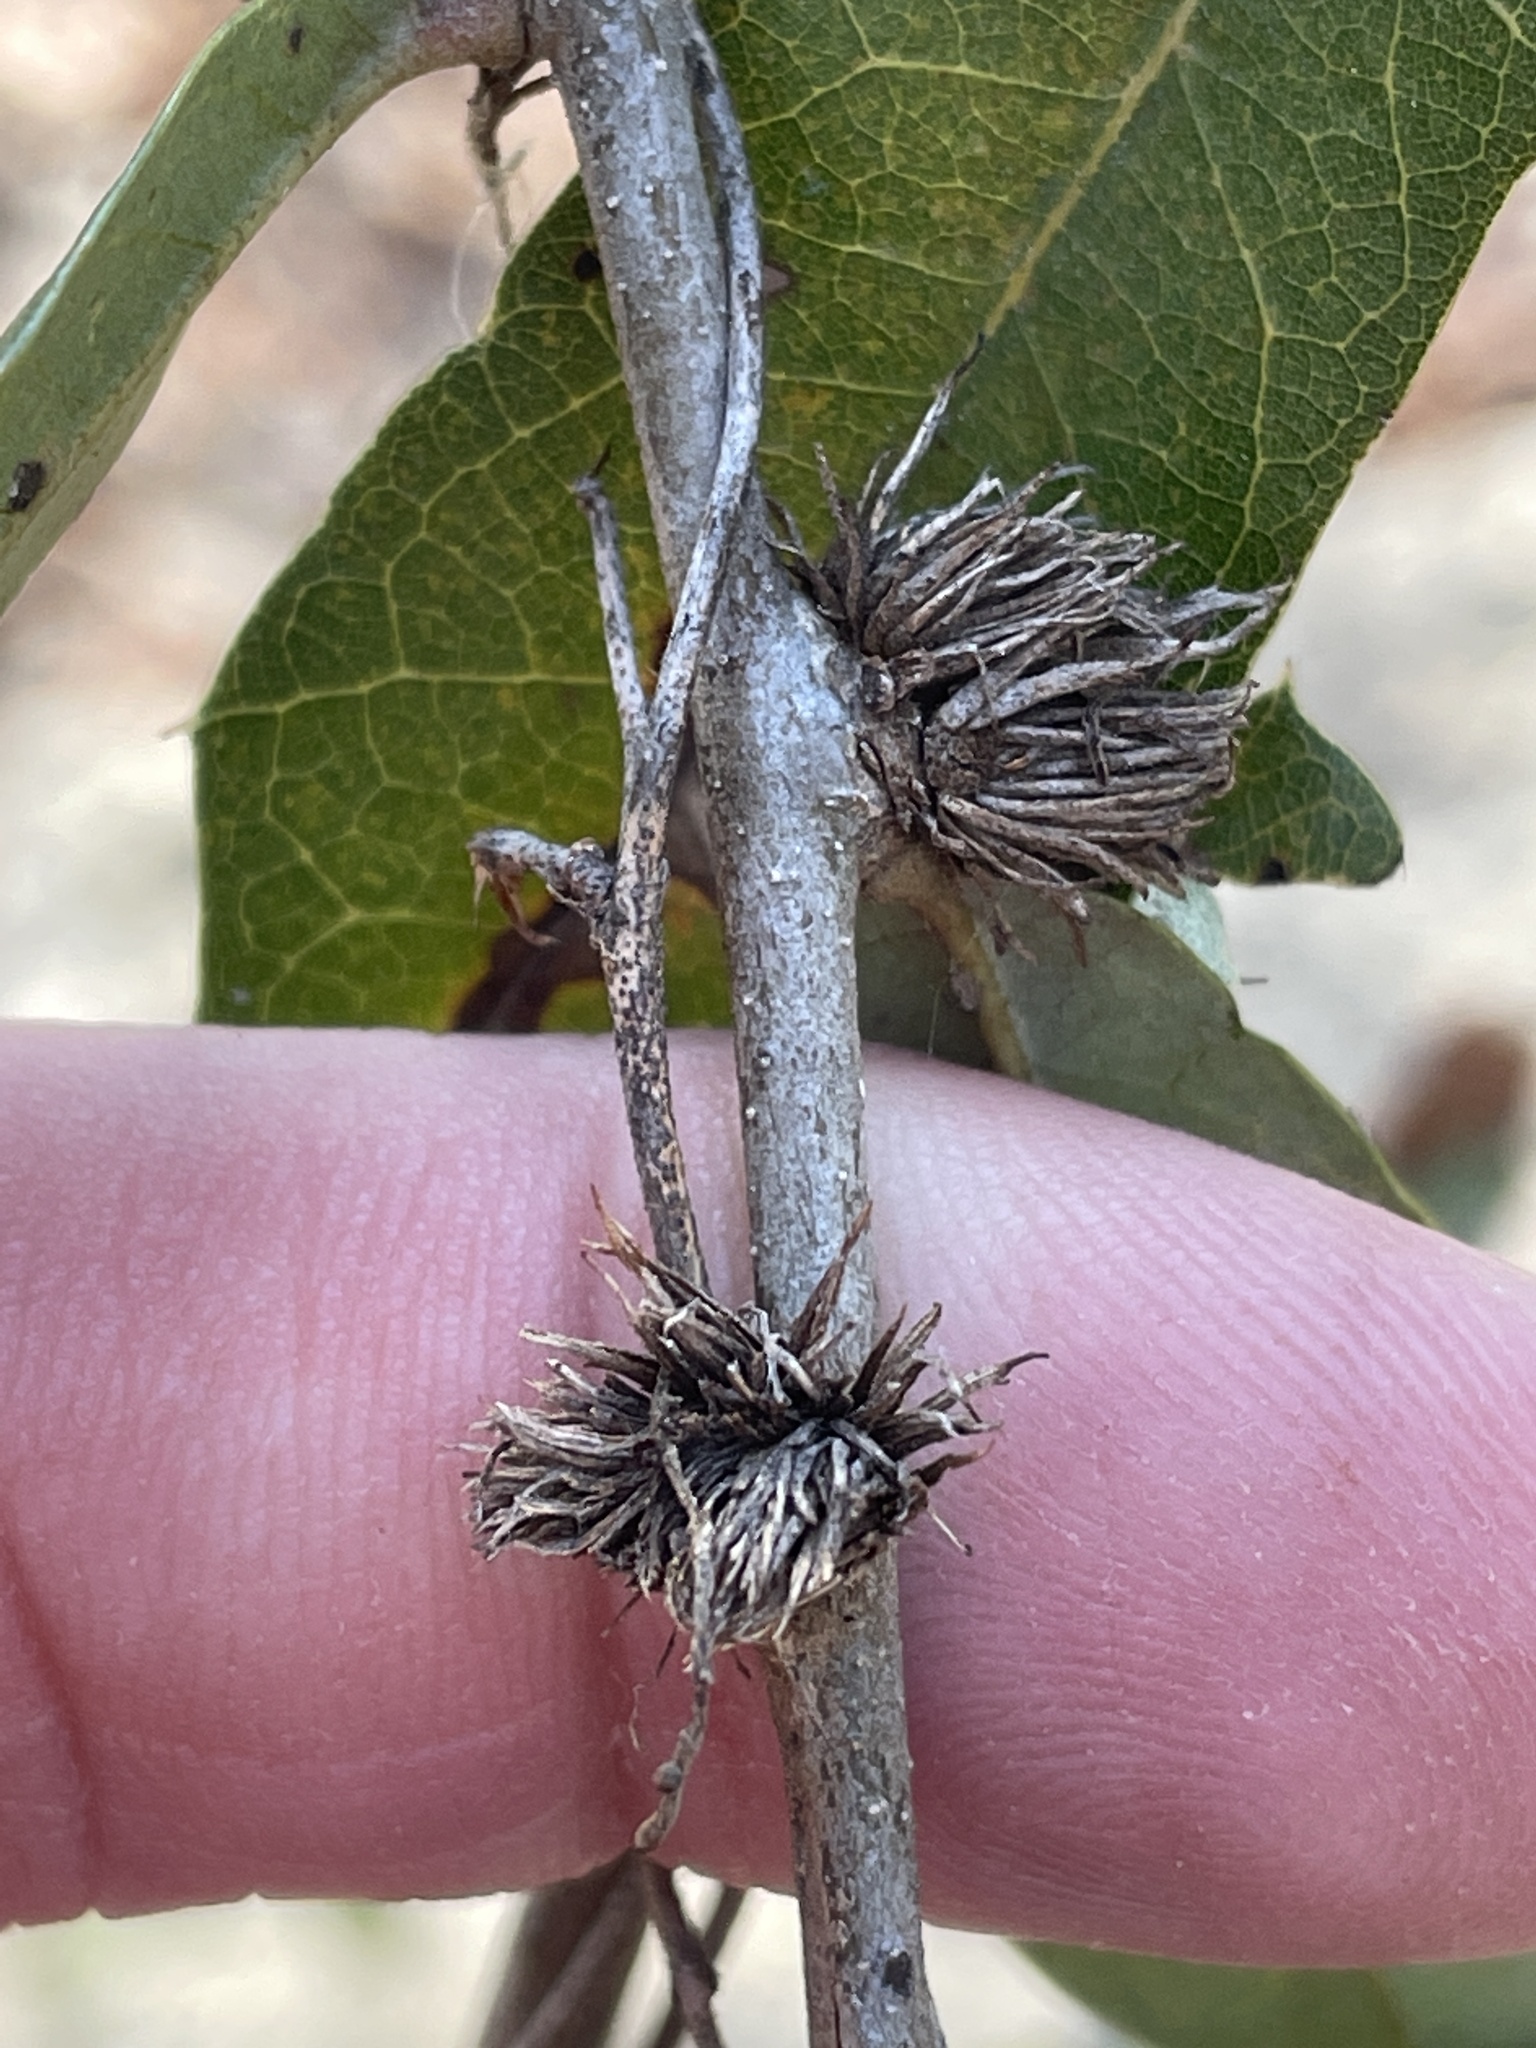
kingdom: Animalia
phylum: Arthropoda
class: Insecta
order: Hymenoptera
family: Cynipidae
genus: Andricus
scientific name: Andricus quercusfoliatus
